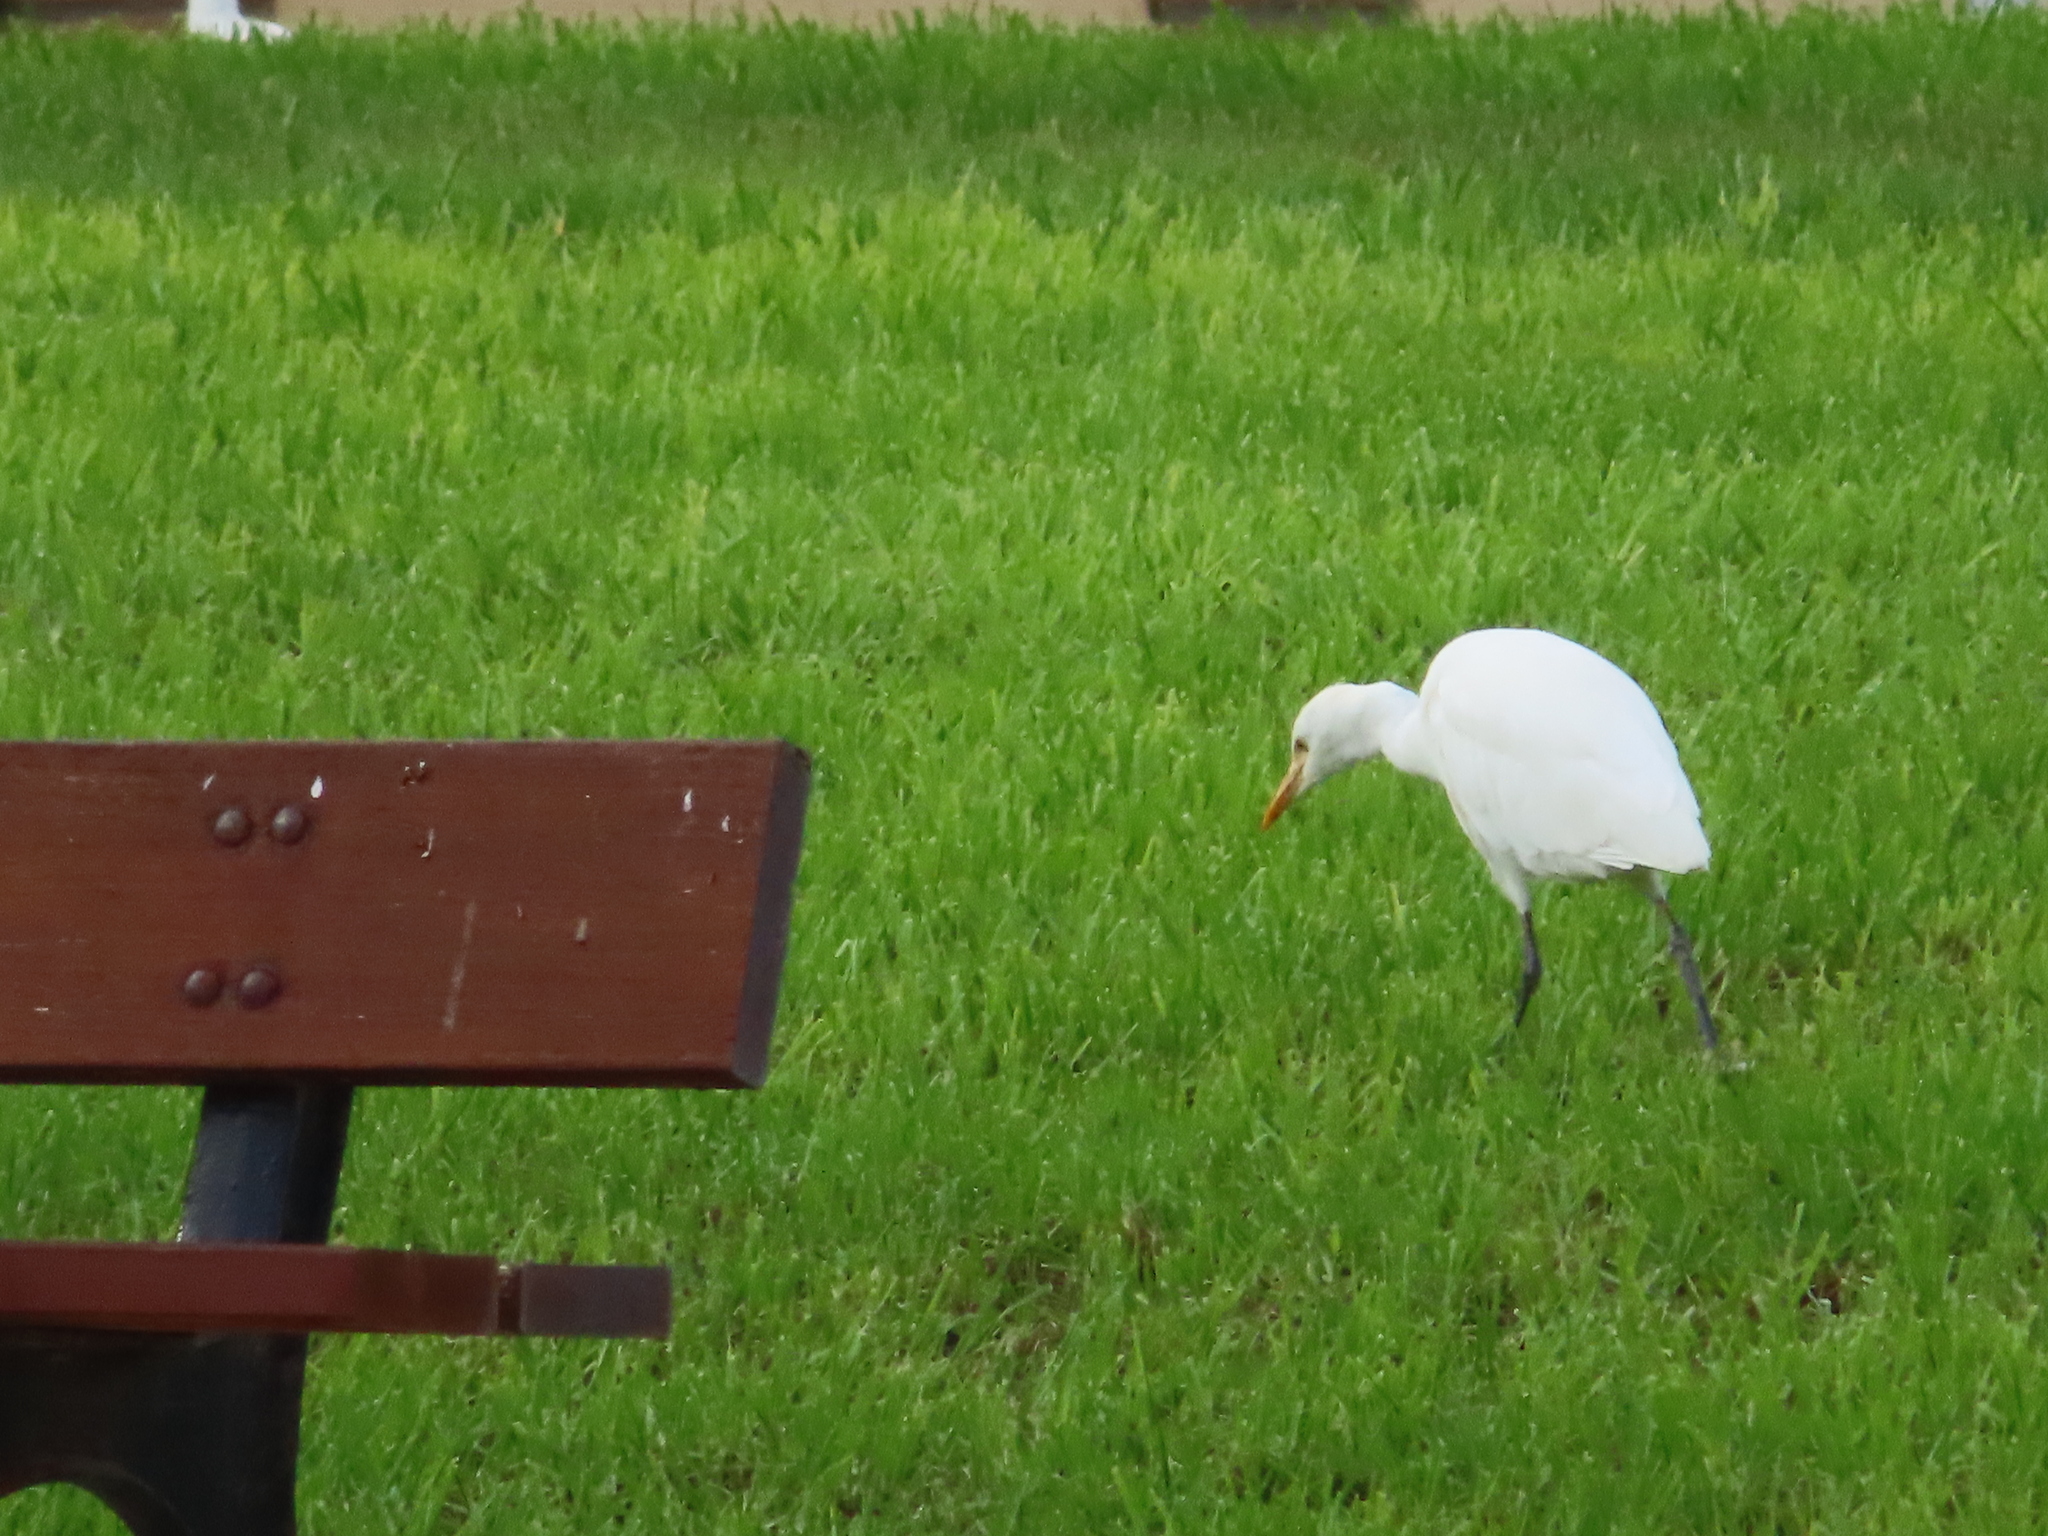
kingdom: Animalia
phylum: Chordata
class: Aves
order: Pelecaniformes
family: Ardeidae
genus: Bubulcus
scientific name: Bubulcus ibis
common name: Cattle egret
